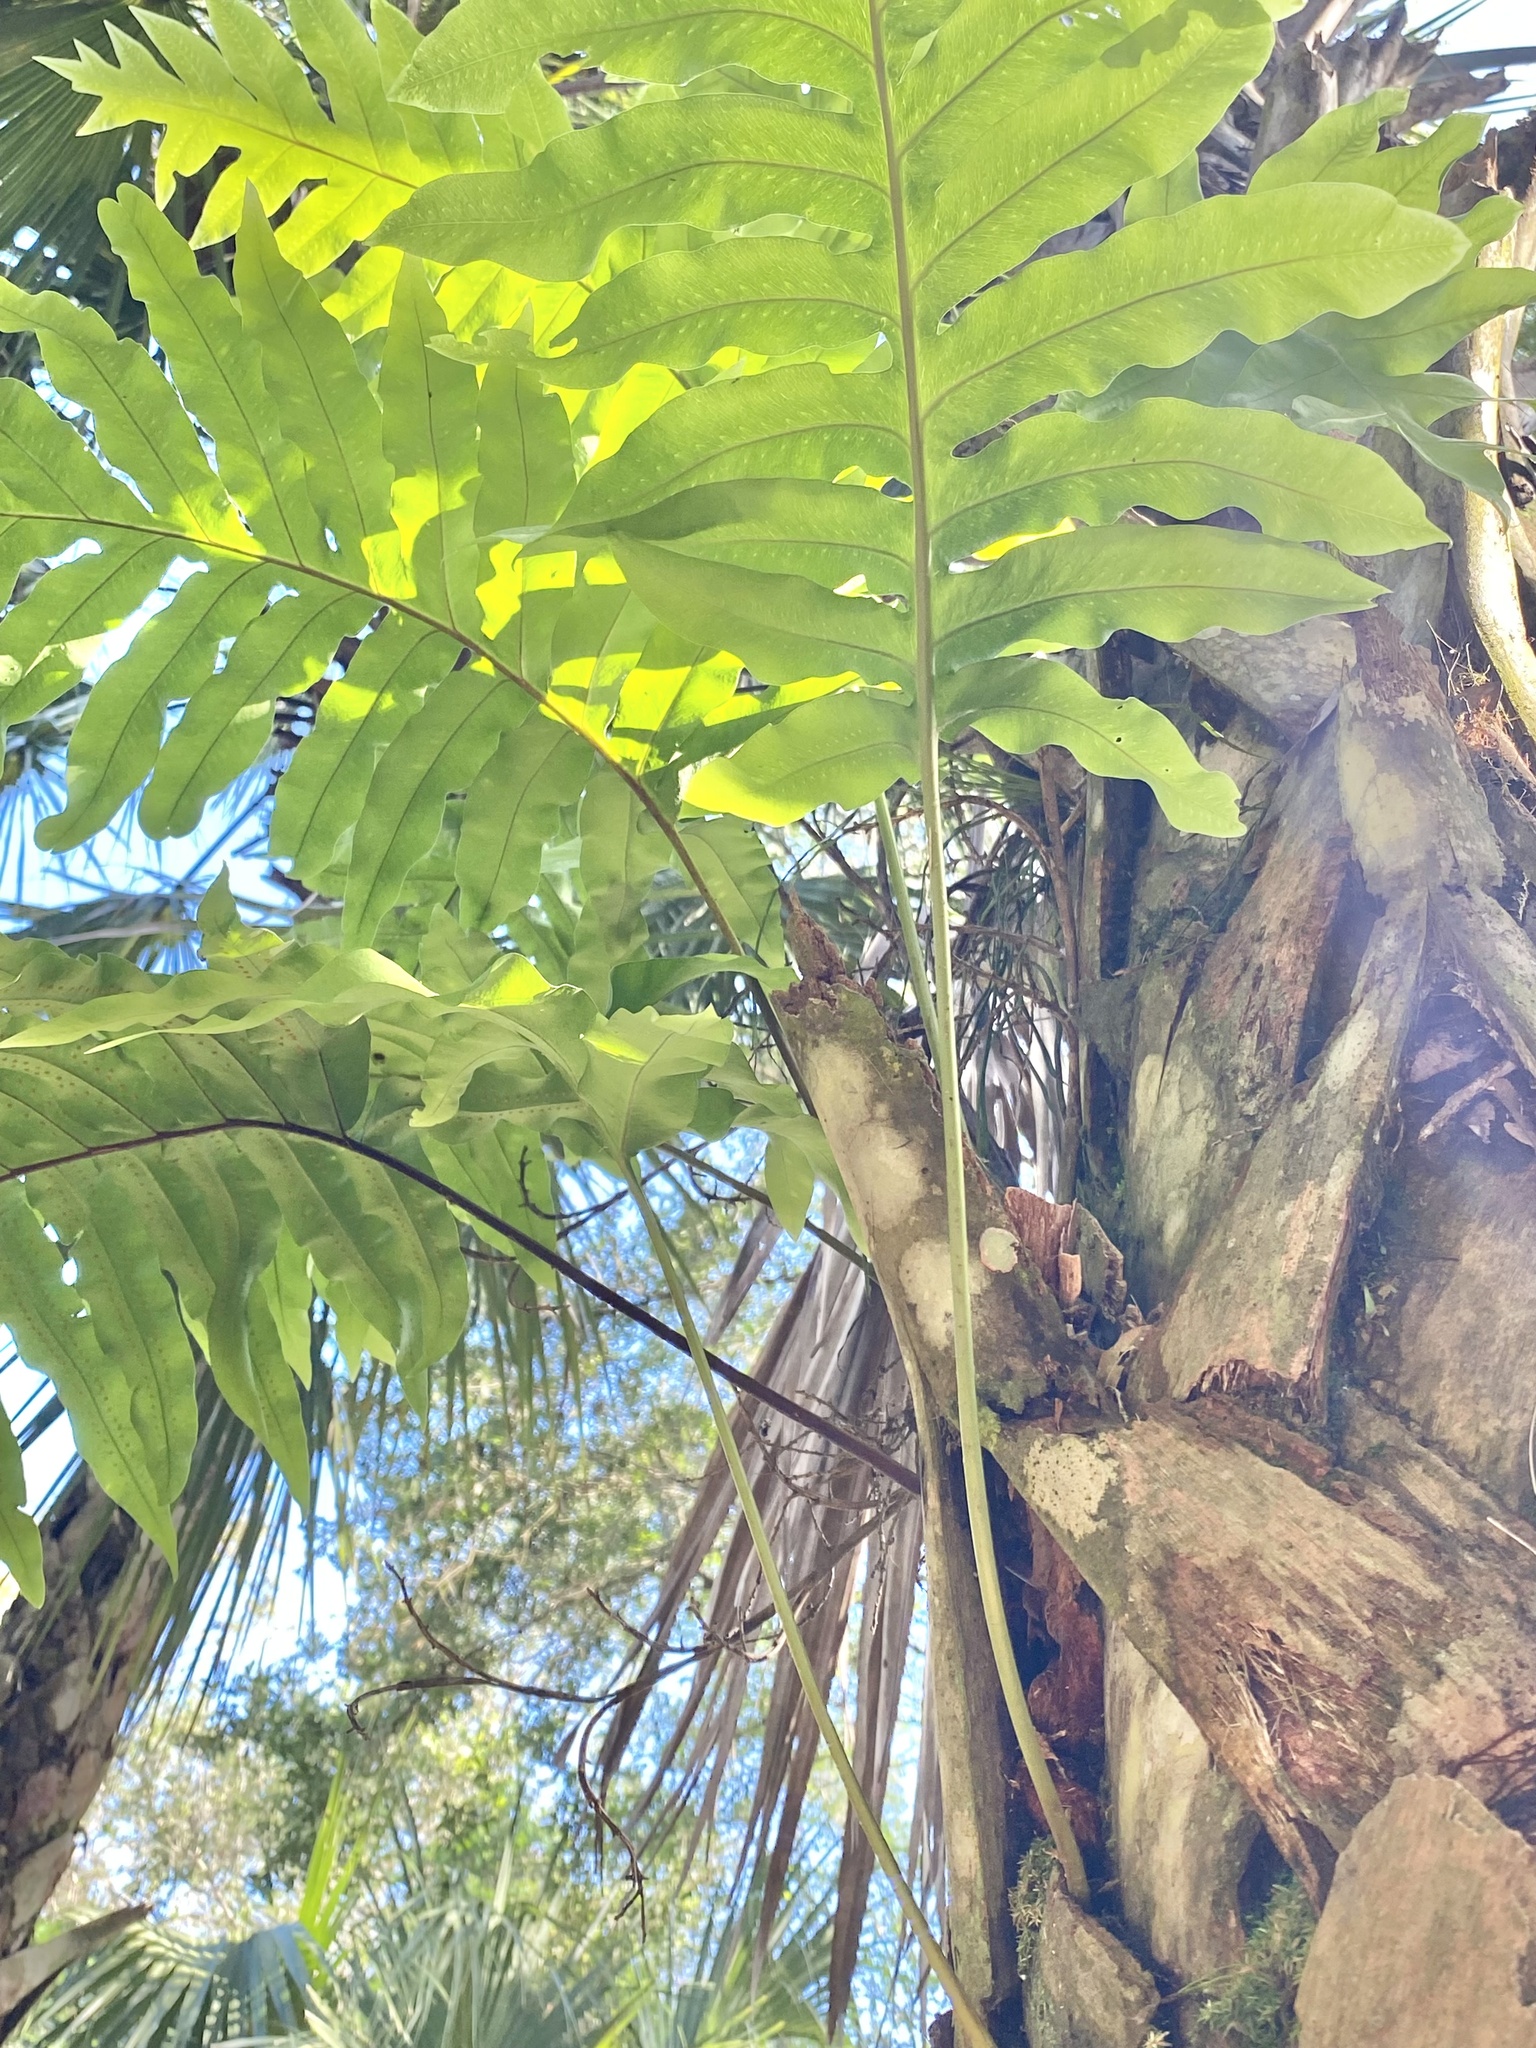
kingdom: Plantae
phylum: Tracheophyta
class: Polypodiopsida
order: Polypodiales
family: Polypodiaceae
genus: Phlebodium
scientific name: Phlebodium aureum
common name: Gold-foot fern
